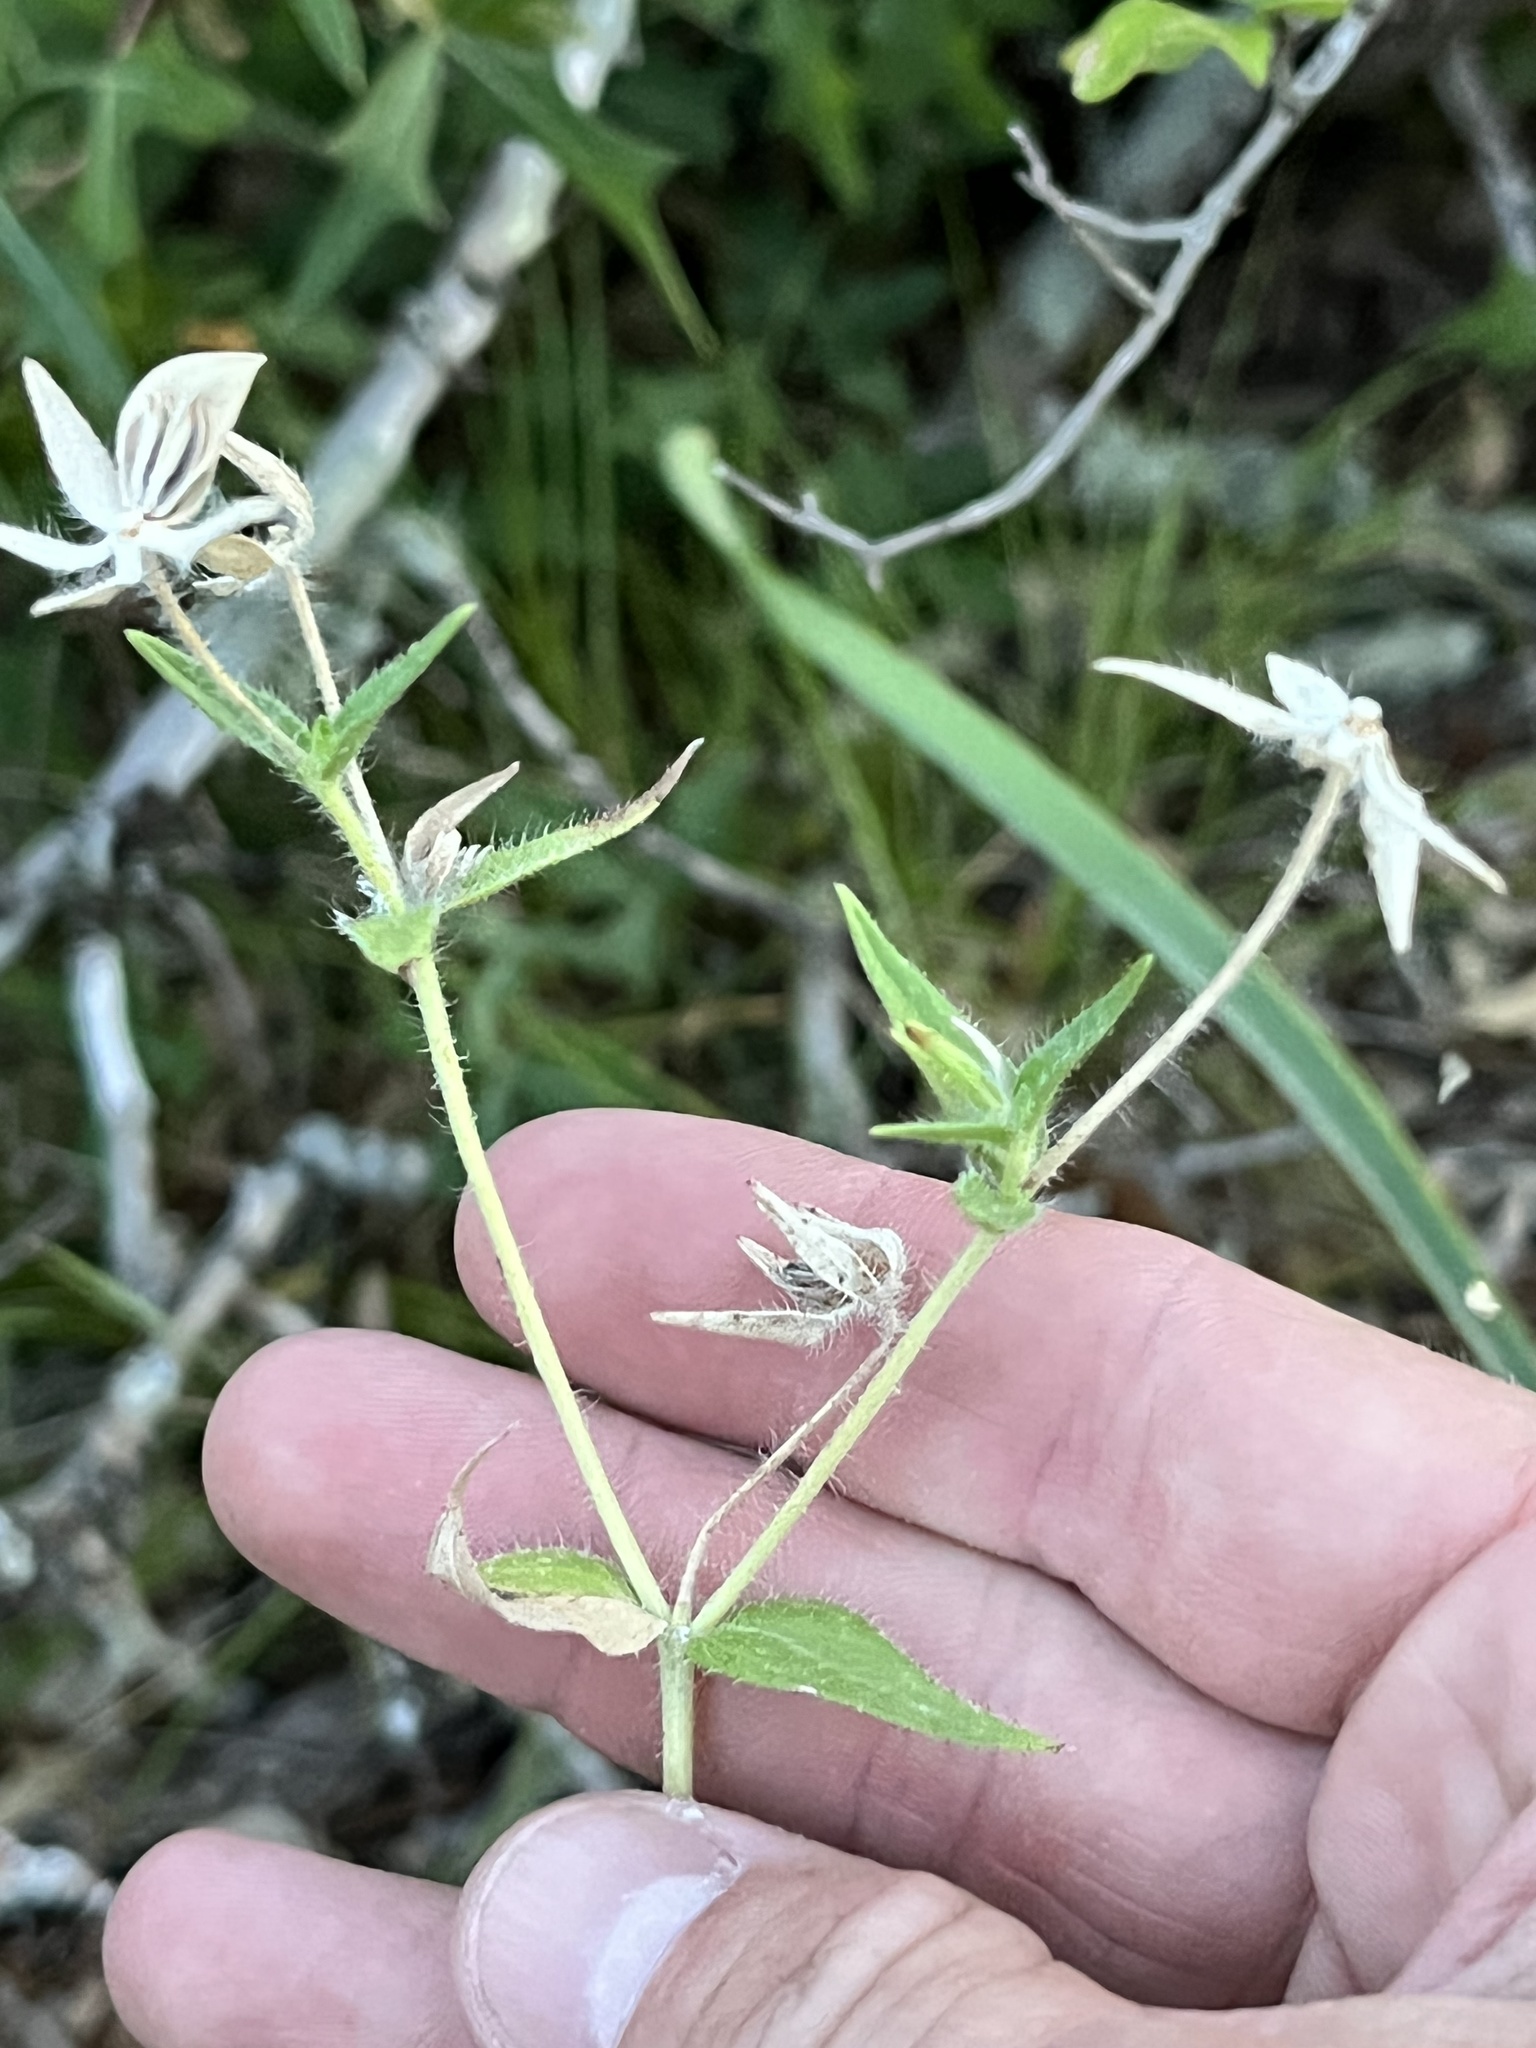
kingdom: Plantae
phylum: Tracheophyta
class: Magnoliopsida
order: Asterales
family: Asteraceae
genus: Lindheimera
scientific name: Lindheimera texana
